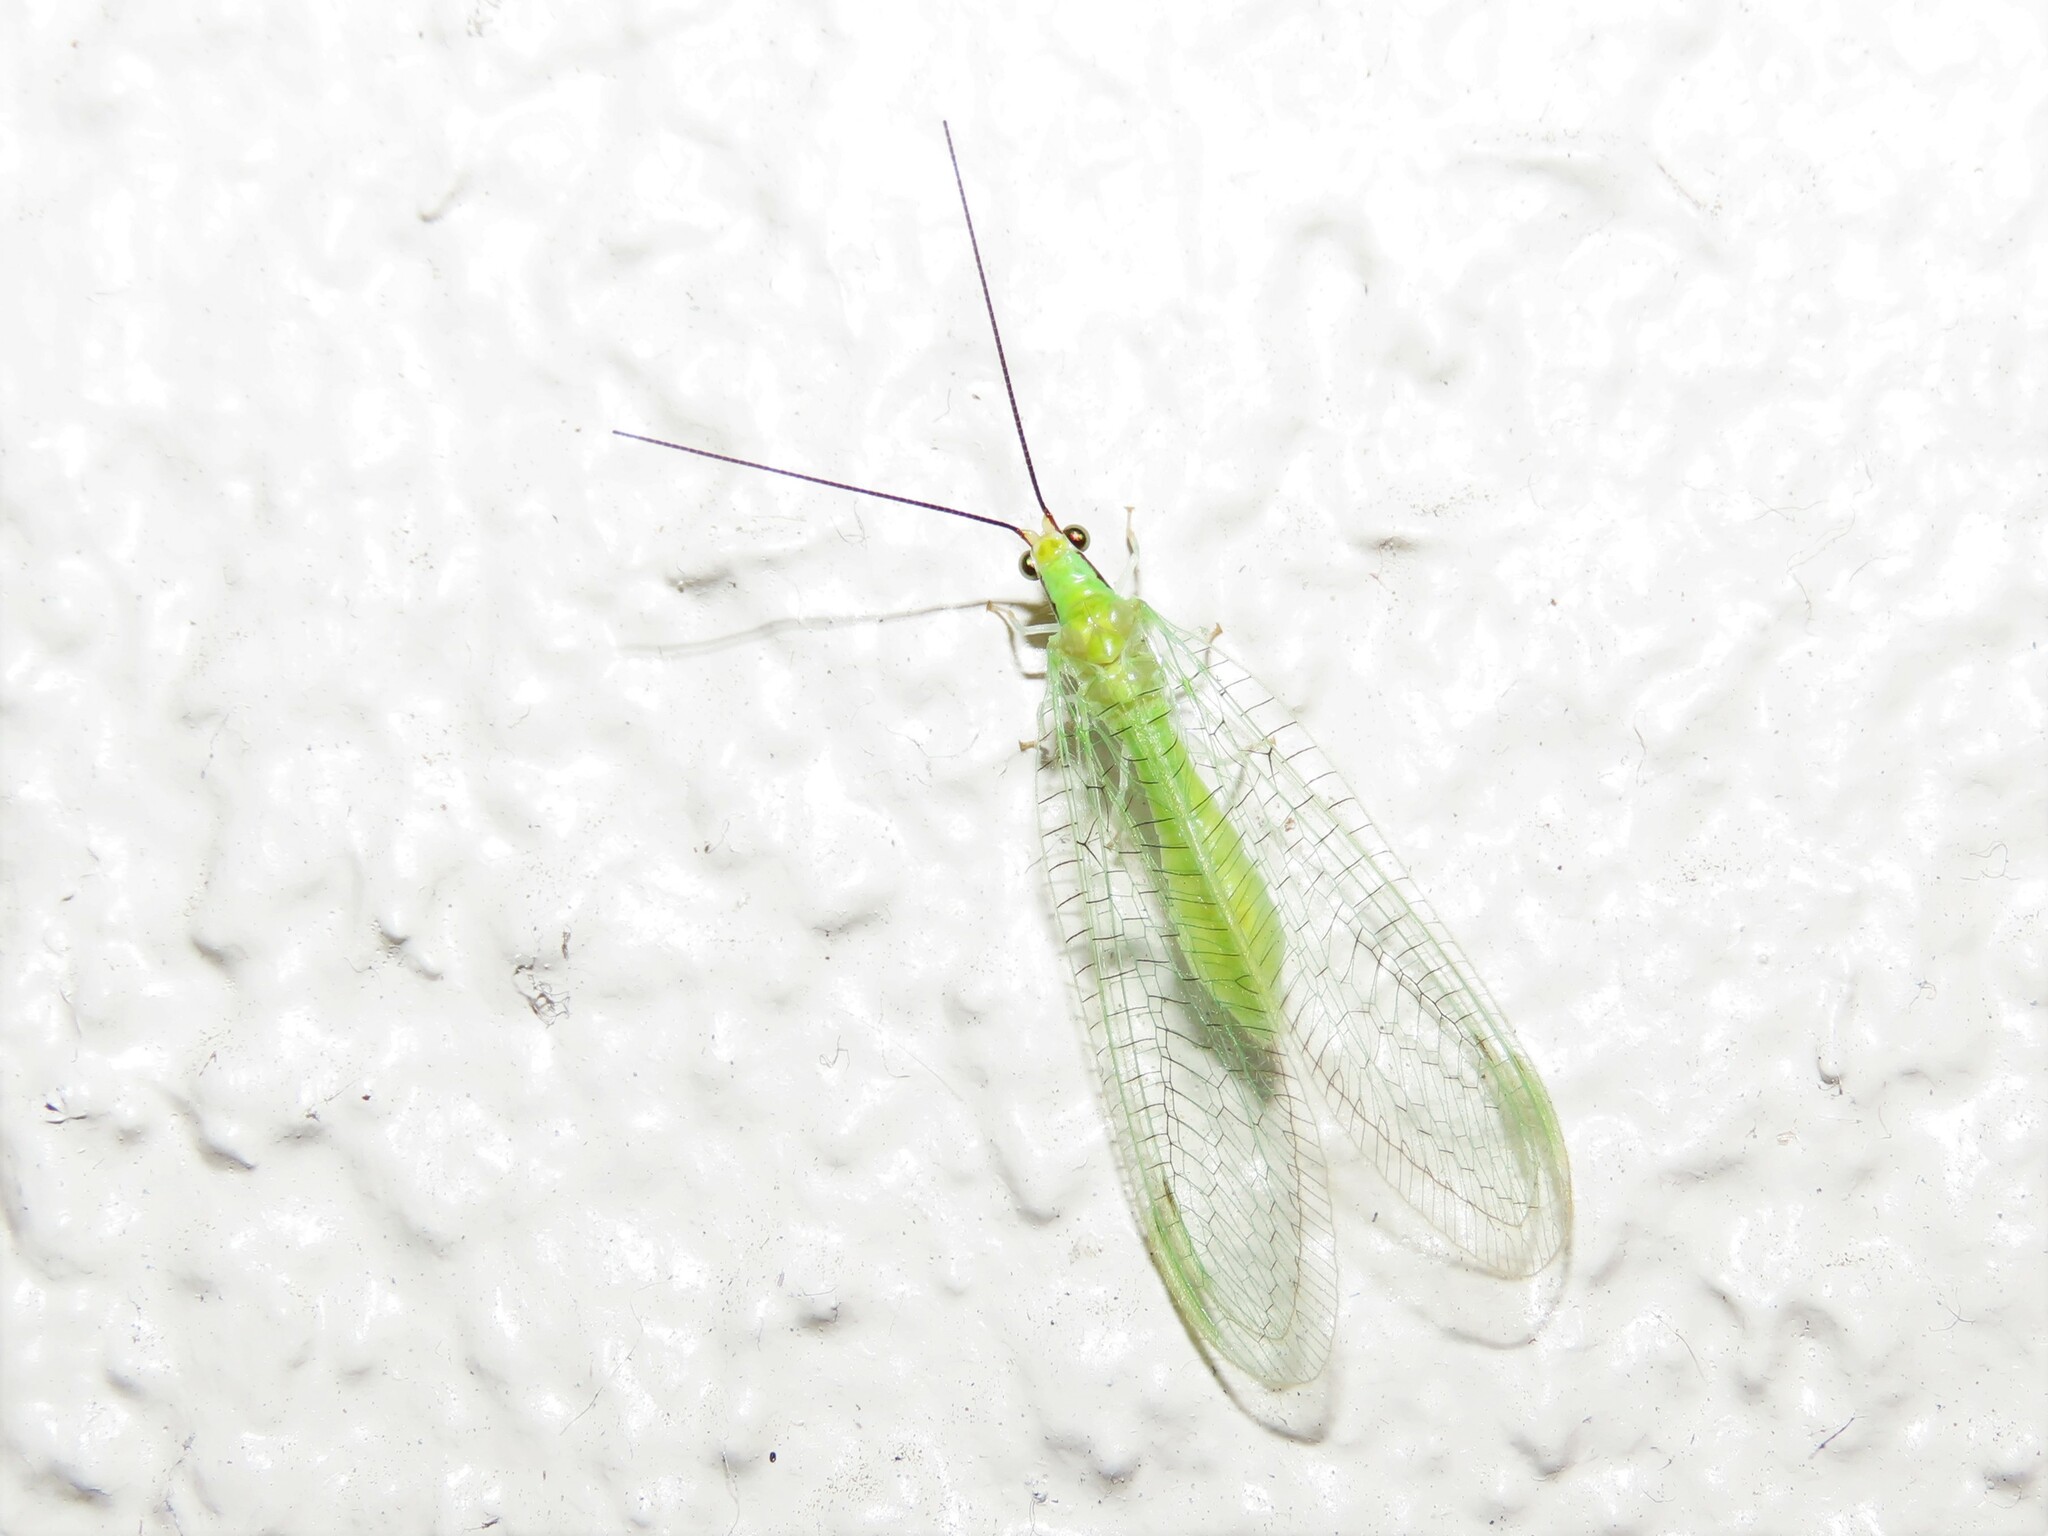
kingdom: Animalia
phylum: Arthropoda
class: Insecta
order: Neuroptera
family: Chrysopidae
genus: Leucochrysa
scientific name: Leucochrysa pavida
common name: Lichen-carrying green lacewing
